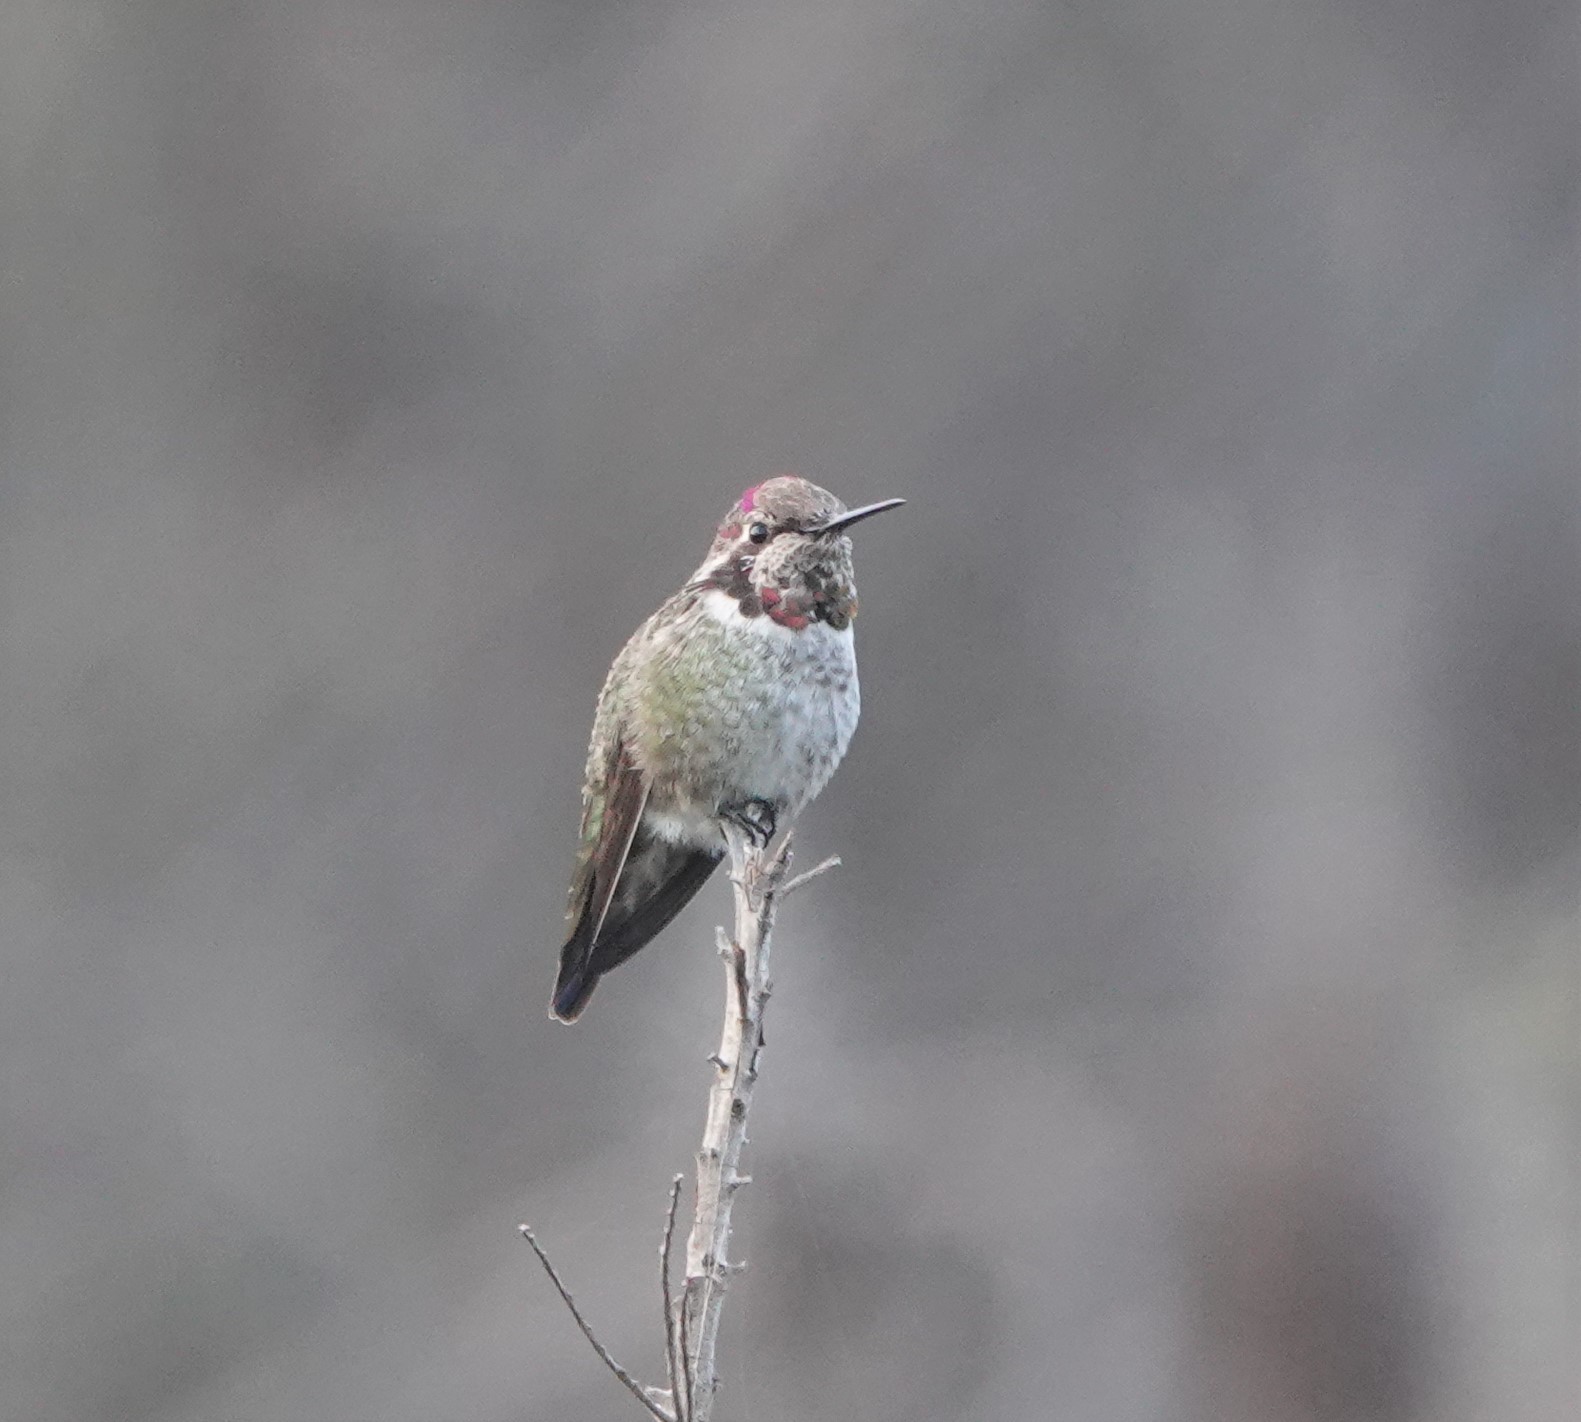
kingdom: Animalia
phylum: Chordata
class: Aves
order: Apodiformes
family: Trochilidae
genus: Calypte
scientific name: Calypte anna
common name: Anna's hummingbird
